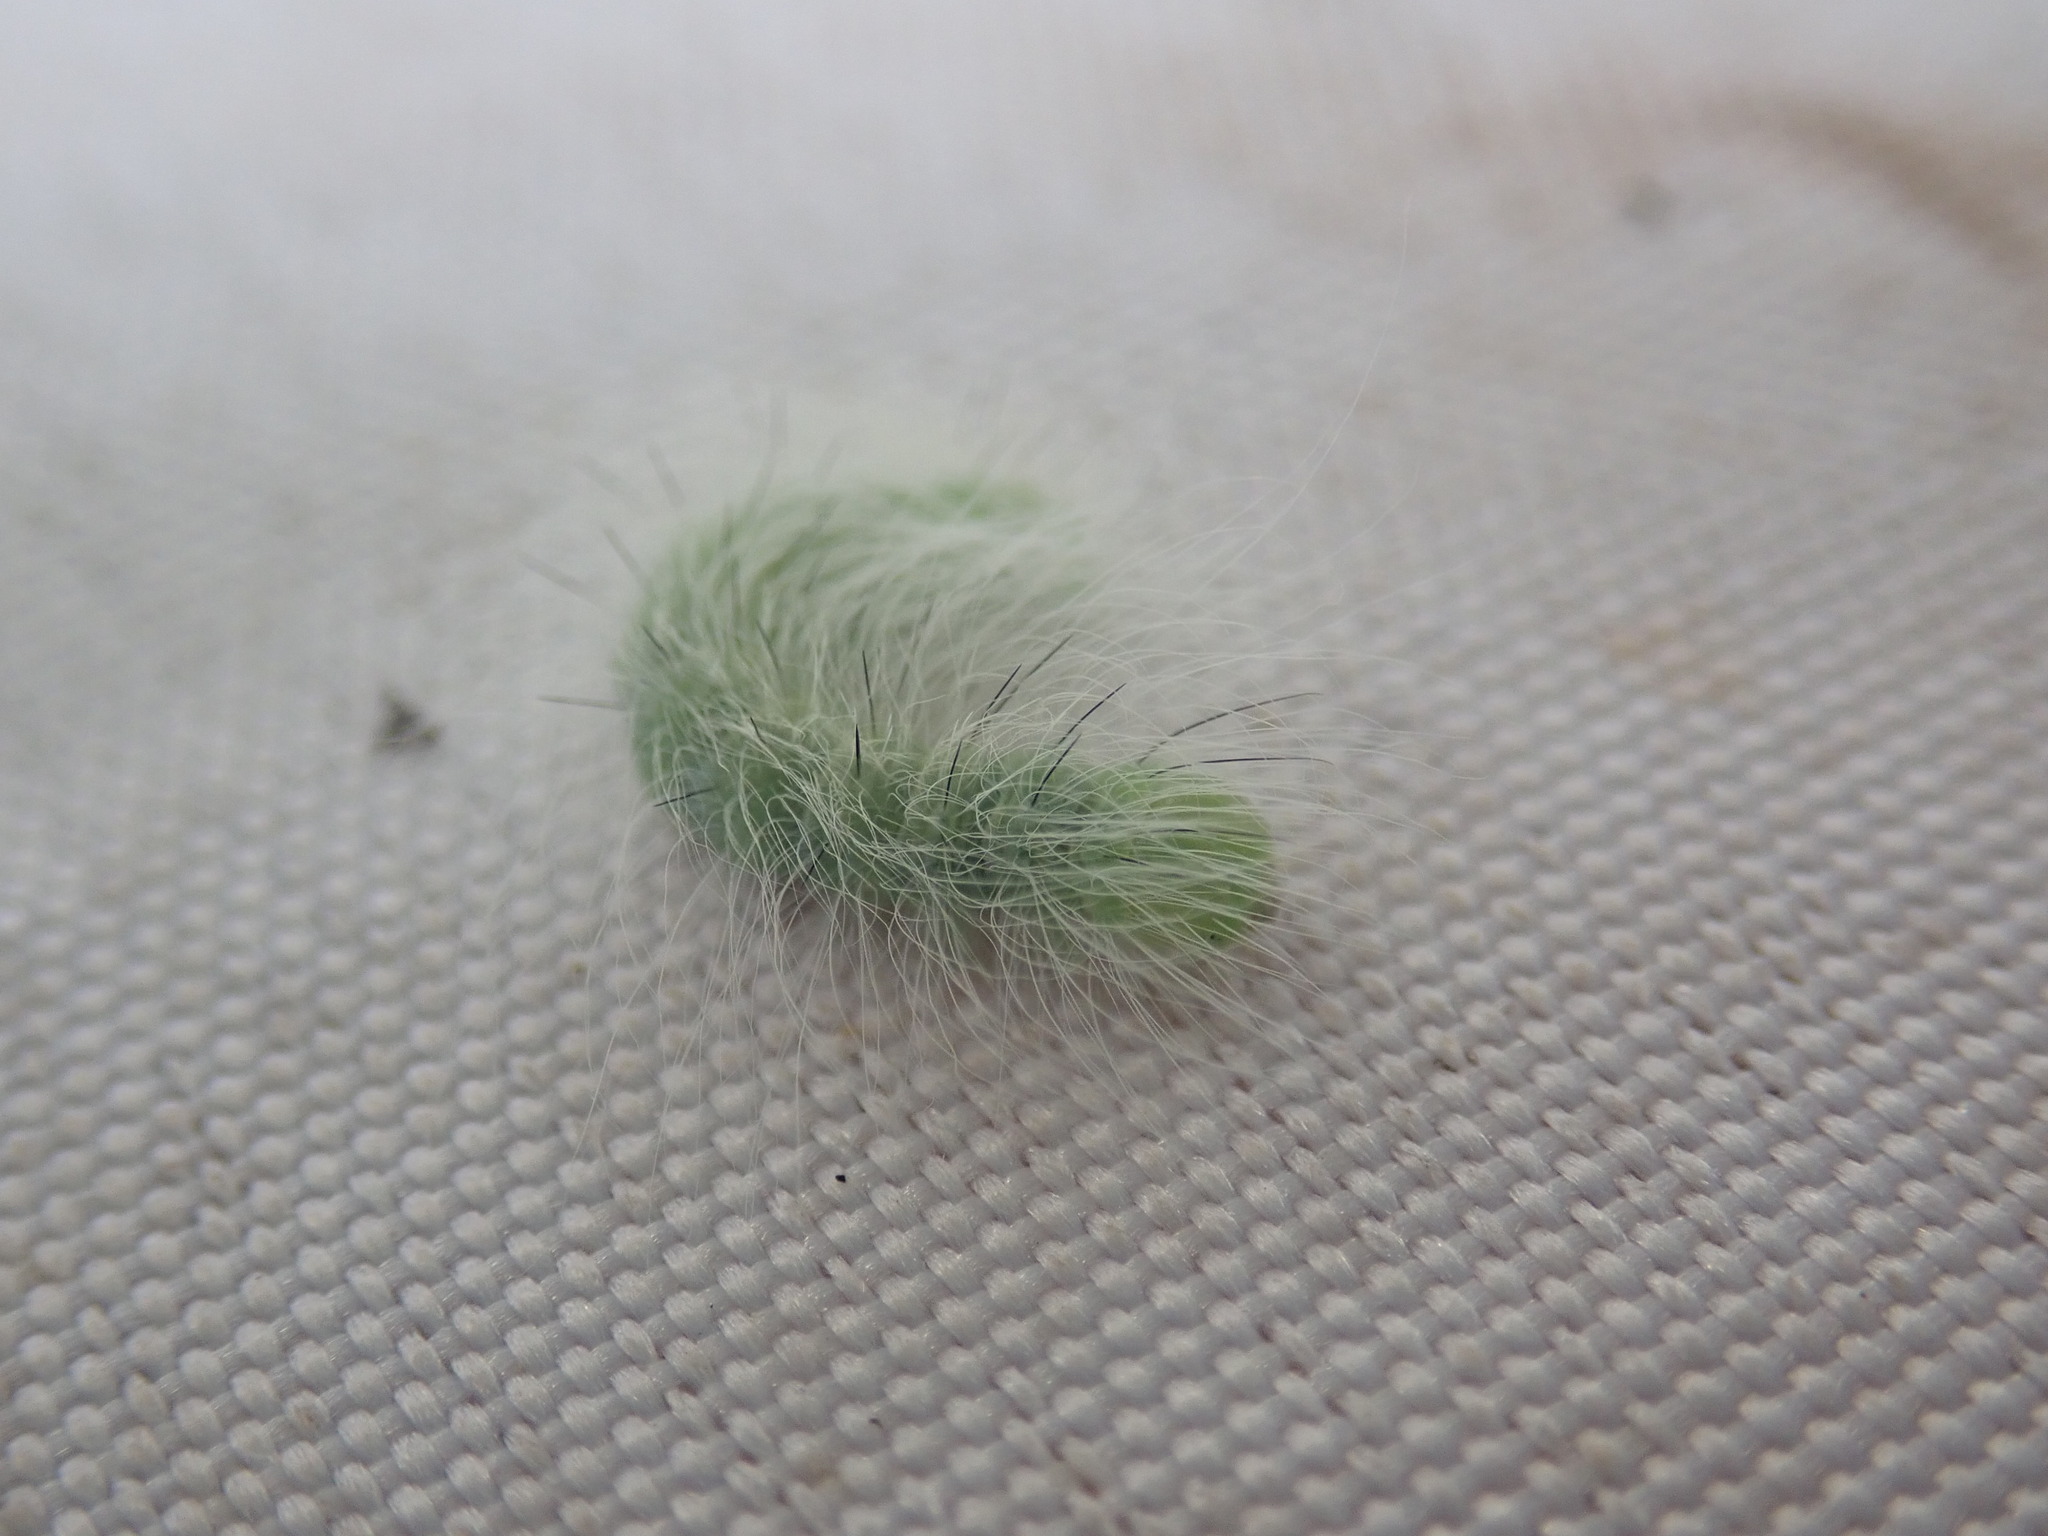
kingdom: Animalia
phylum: Arthropoda
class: Insecta
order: Lepidoptera
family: Noctuidae
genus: Acronicta
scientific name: Acronicta leporina
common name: Miller
